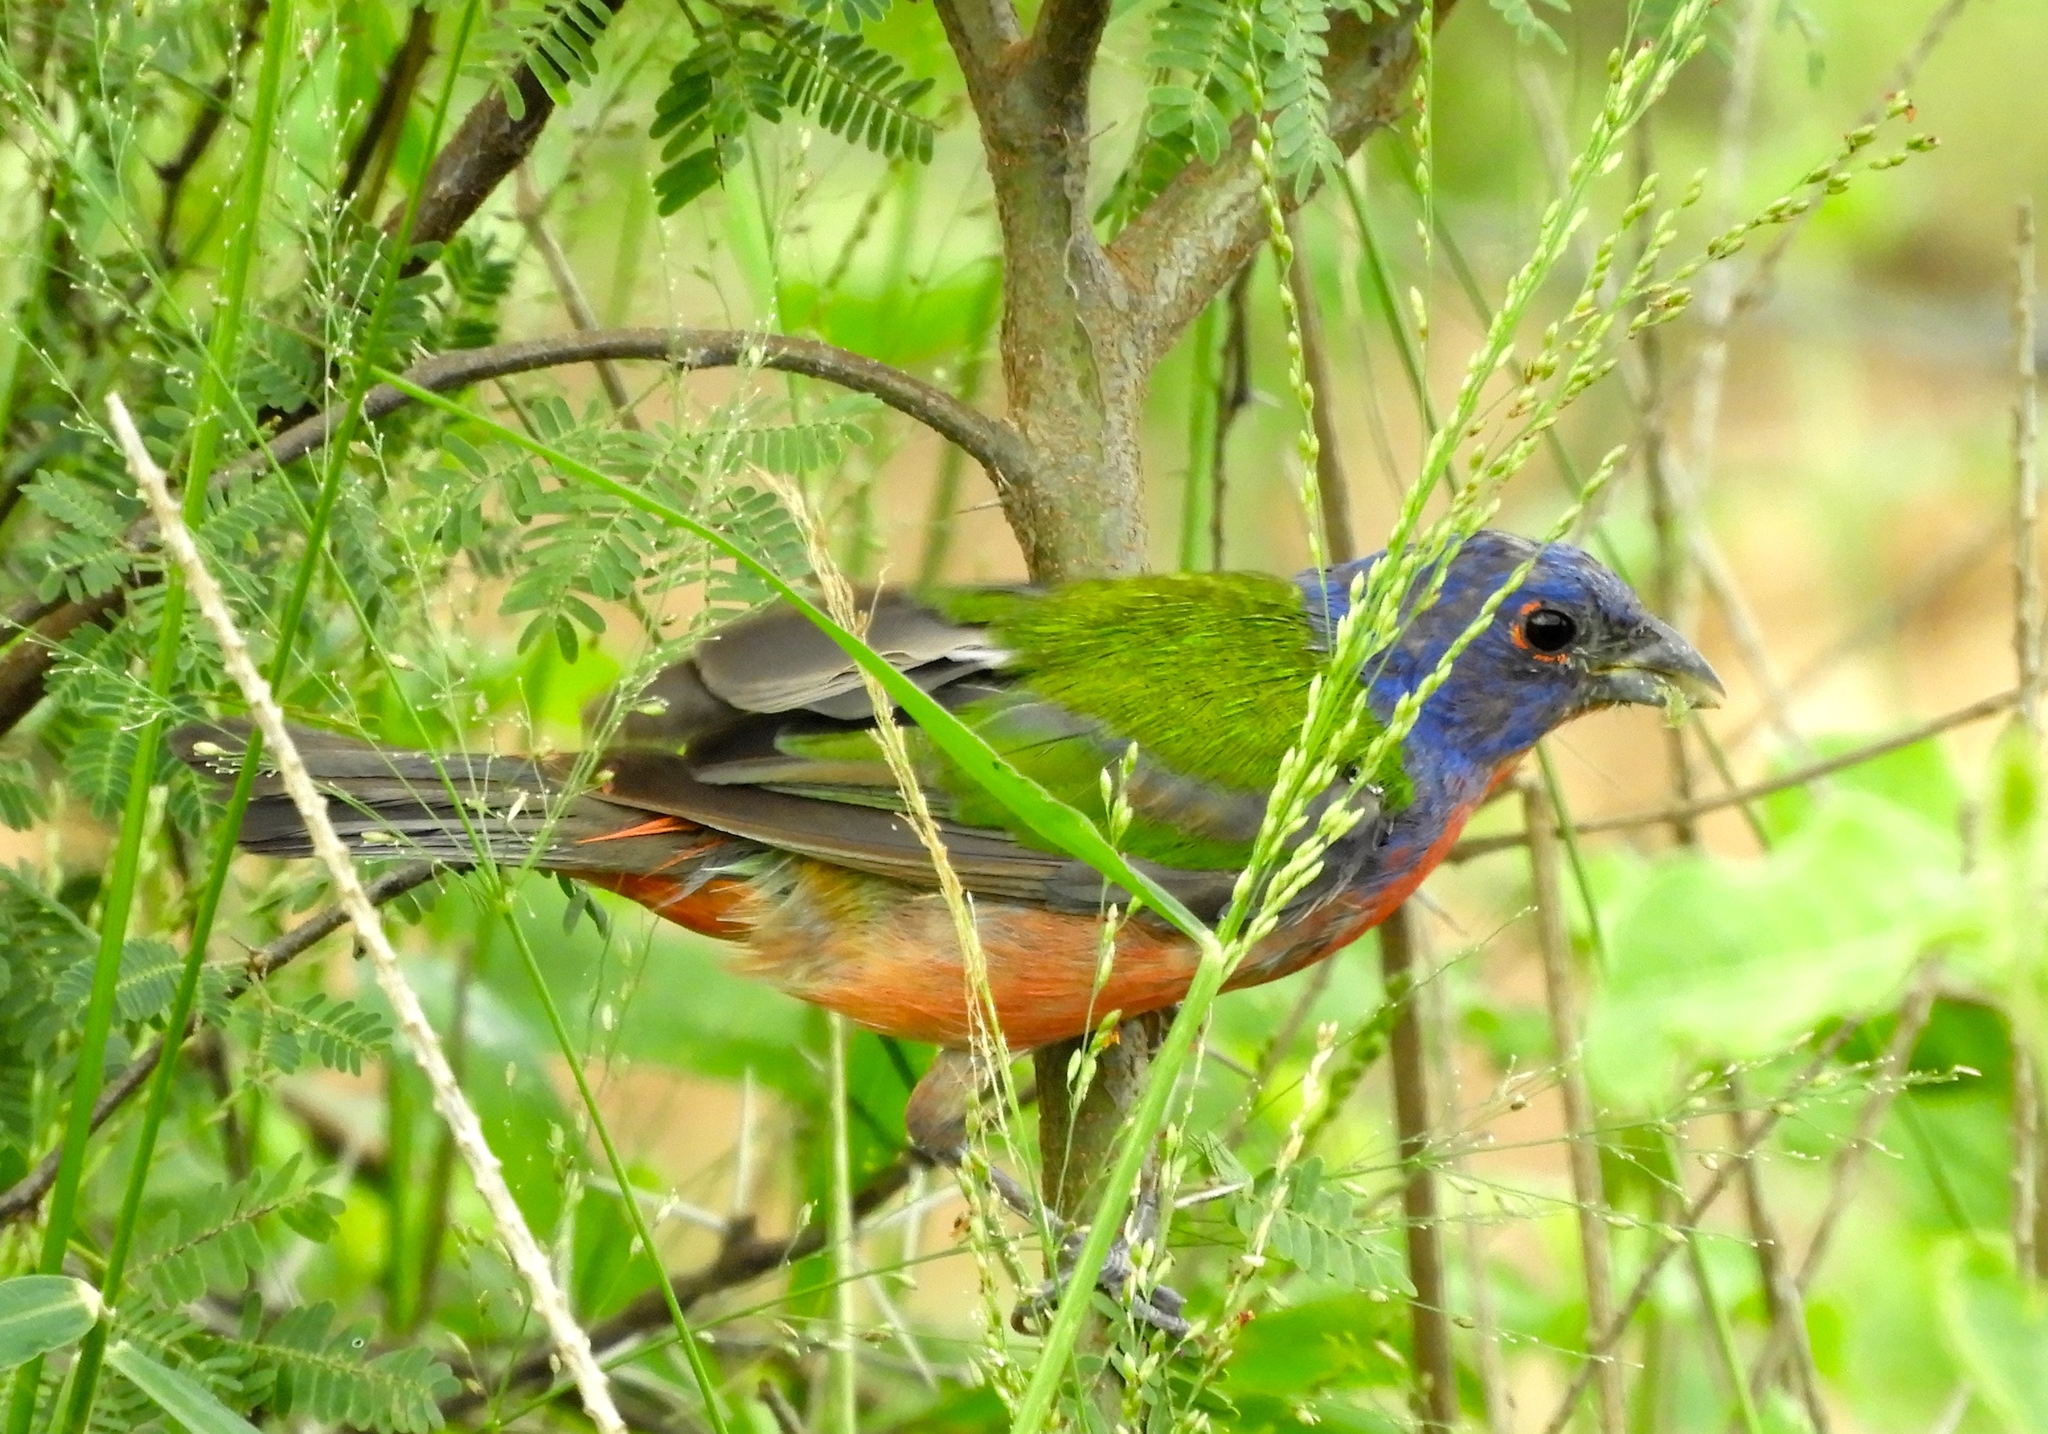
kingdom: Animalia
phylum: Chordata
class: Aves
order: Passeriformes
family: Cardinalidae
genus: Passerina
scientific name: Passerina ciris
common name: Painted bunting
